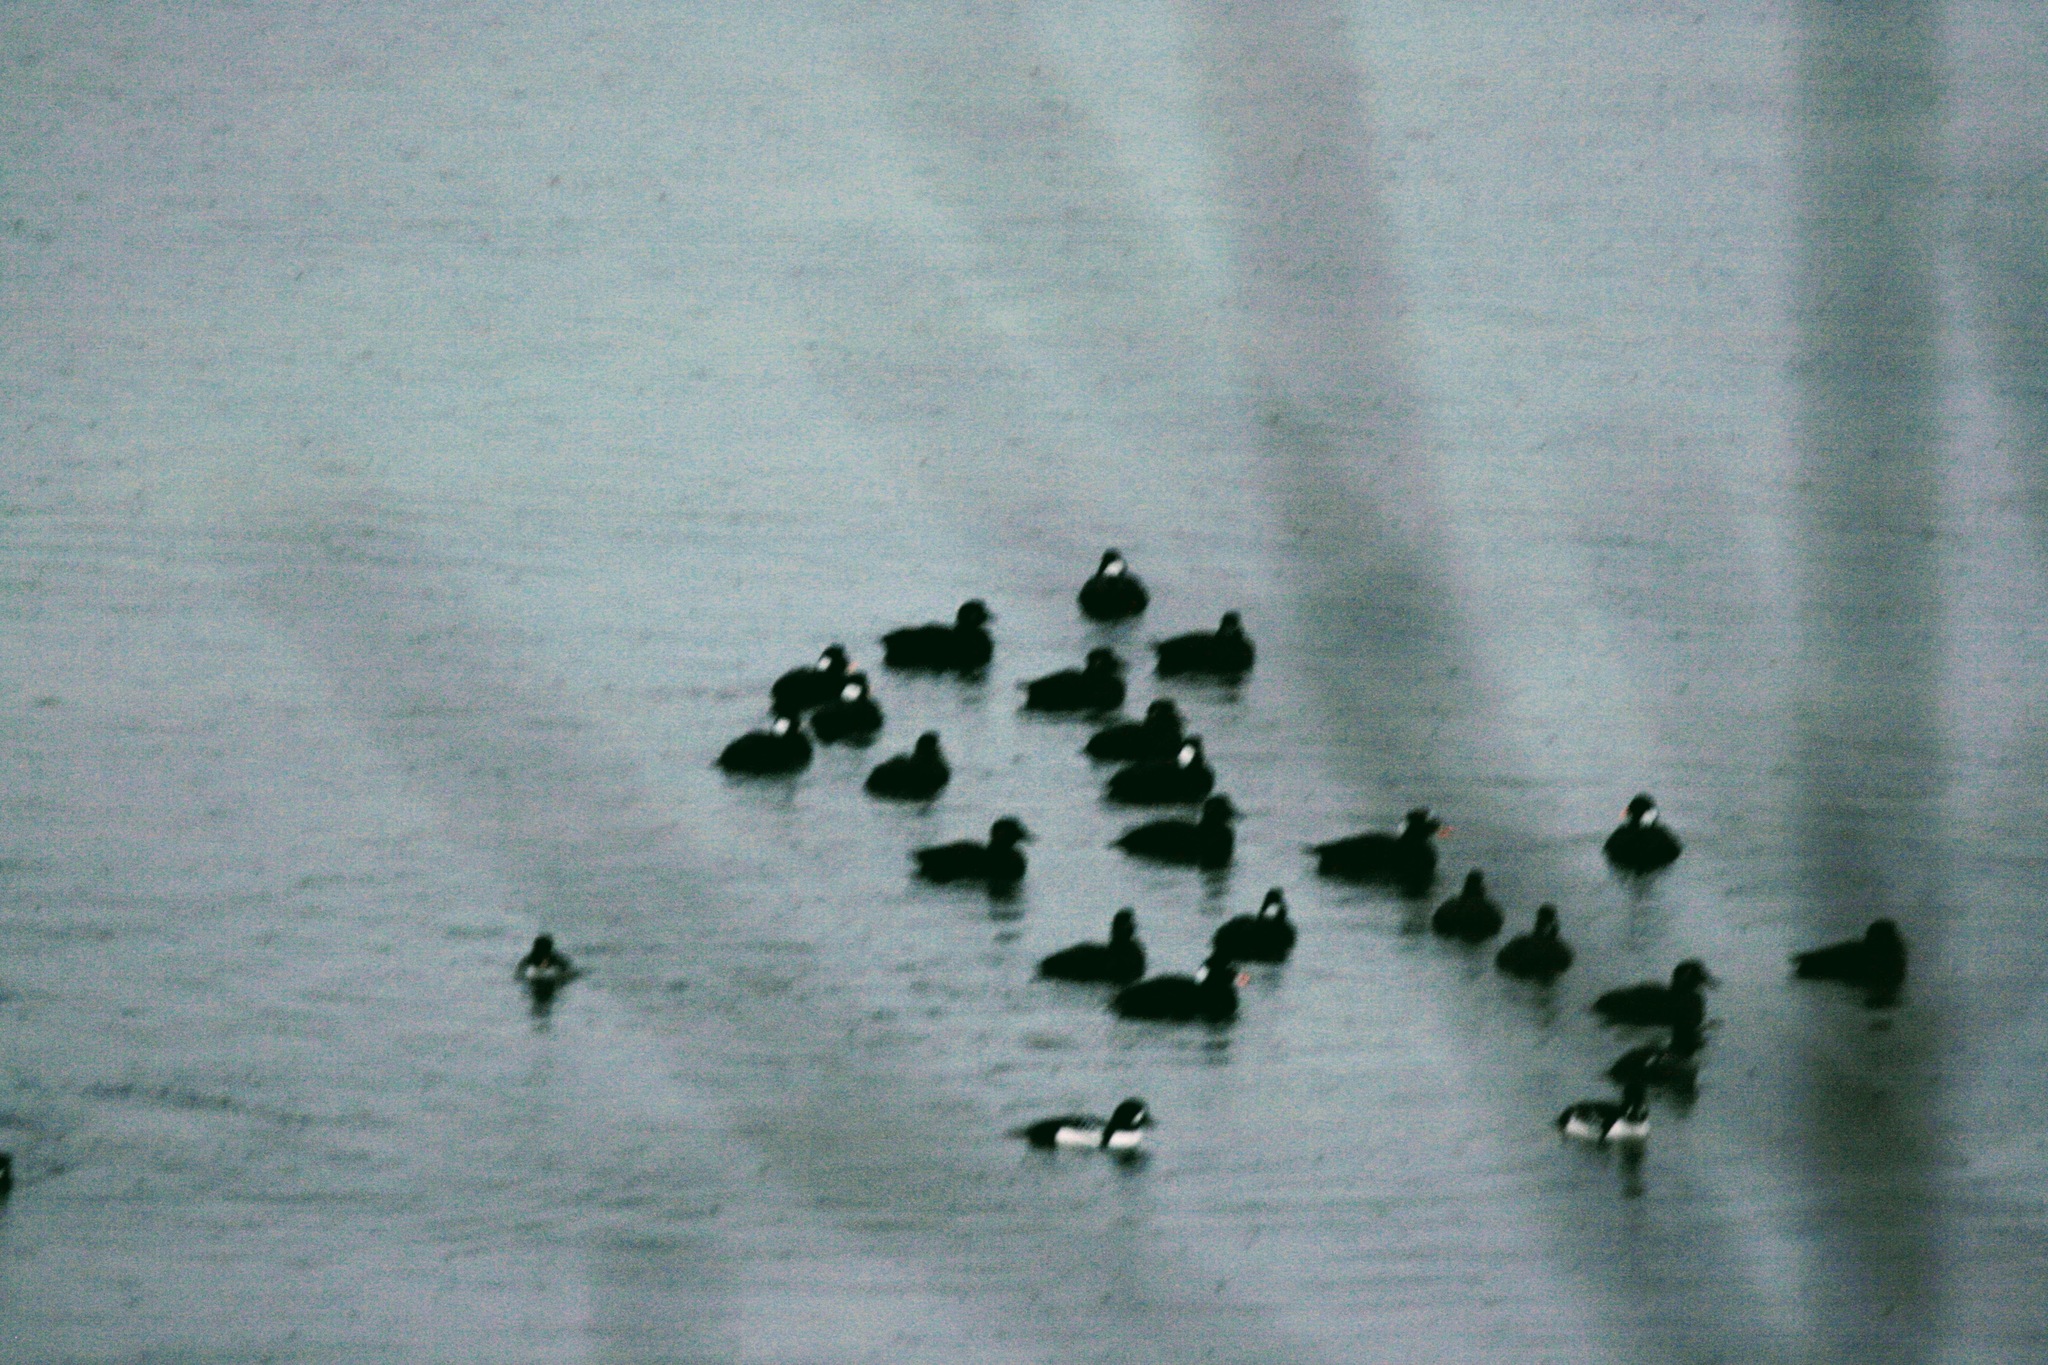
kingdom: Animalia
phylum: Chordata
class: Aves
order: Anseriformes
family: Anatidae
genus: Melanitta
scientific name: Melanitta perspicillata
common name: Surf scoter
